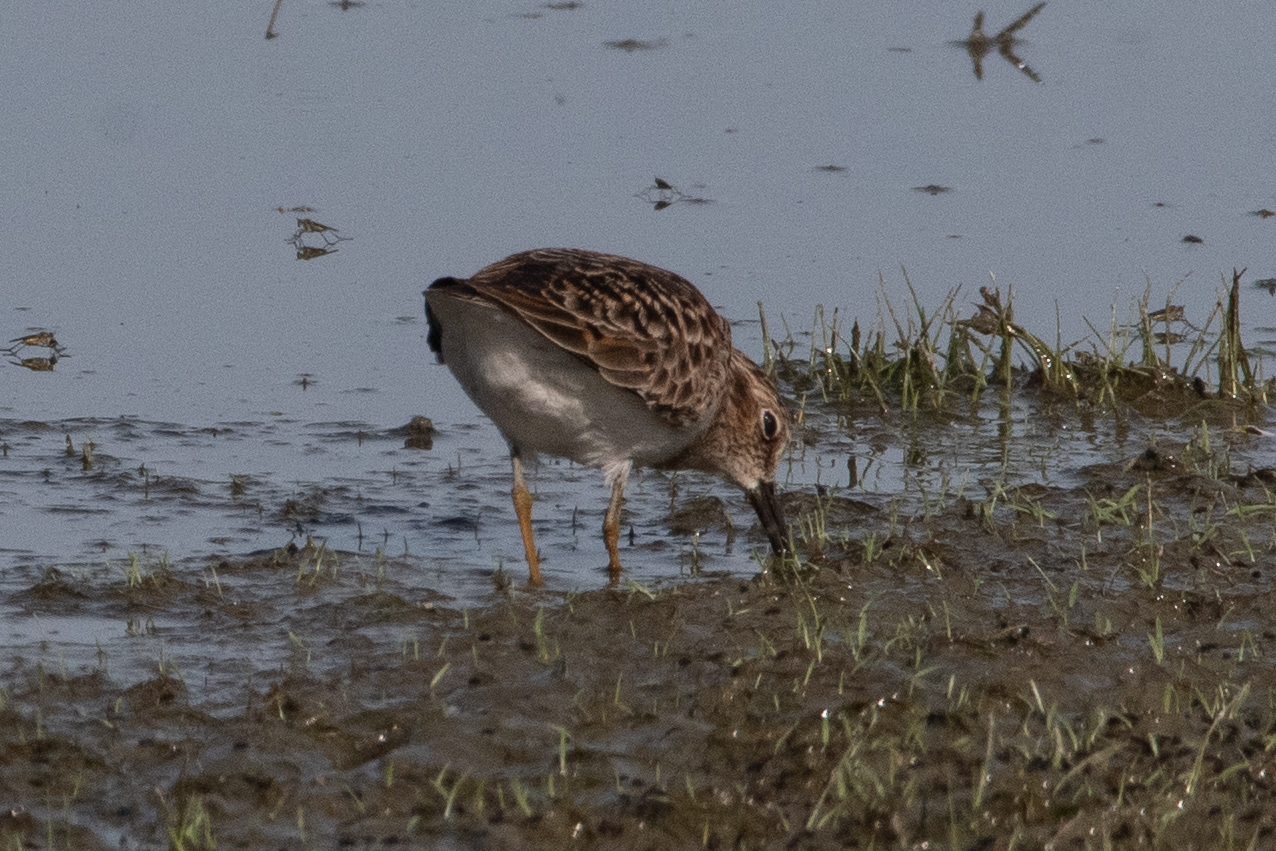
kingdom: Animalia
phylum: Chordata
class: Aves
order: Charadriiformes
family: Scolopacidae
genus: Calidris
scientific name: Calidris minutilla
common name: Least sandpiper
